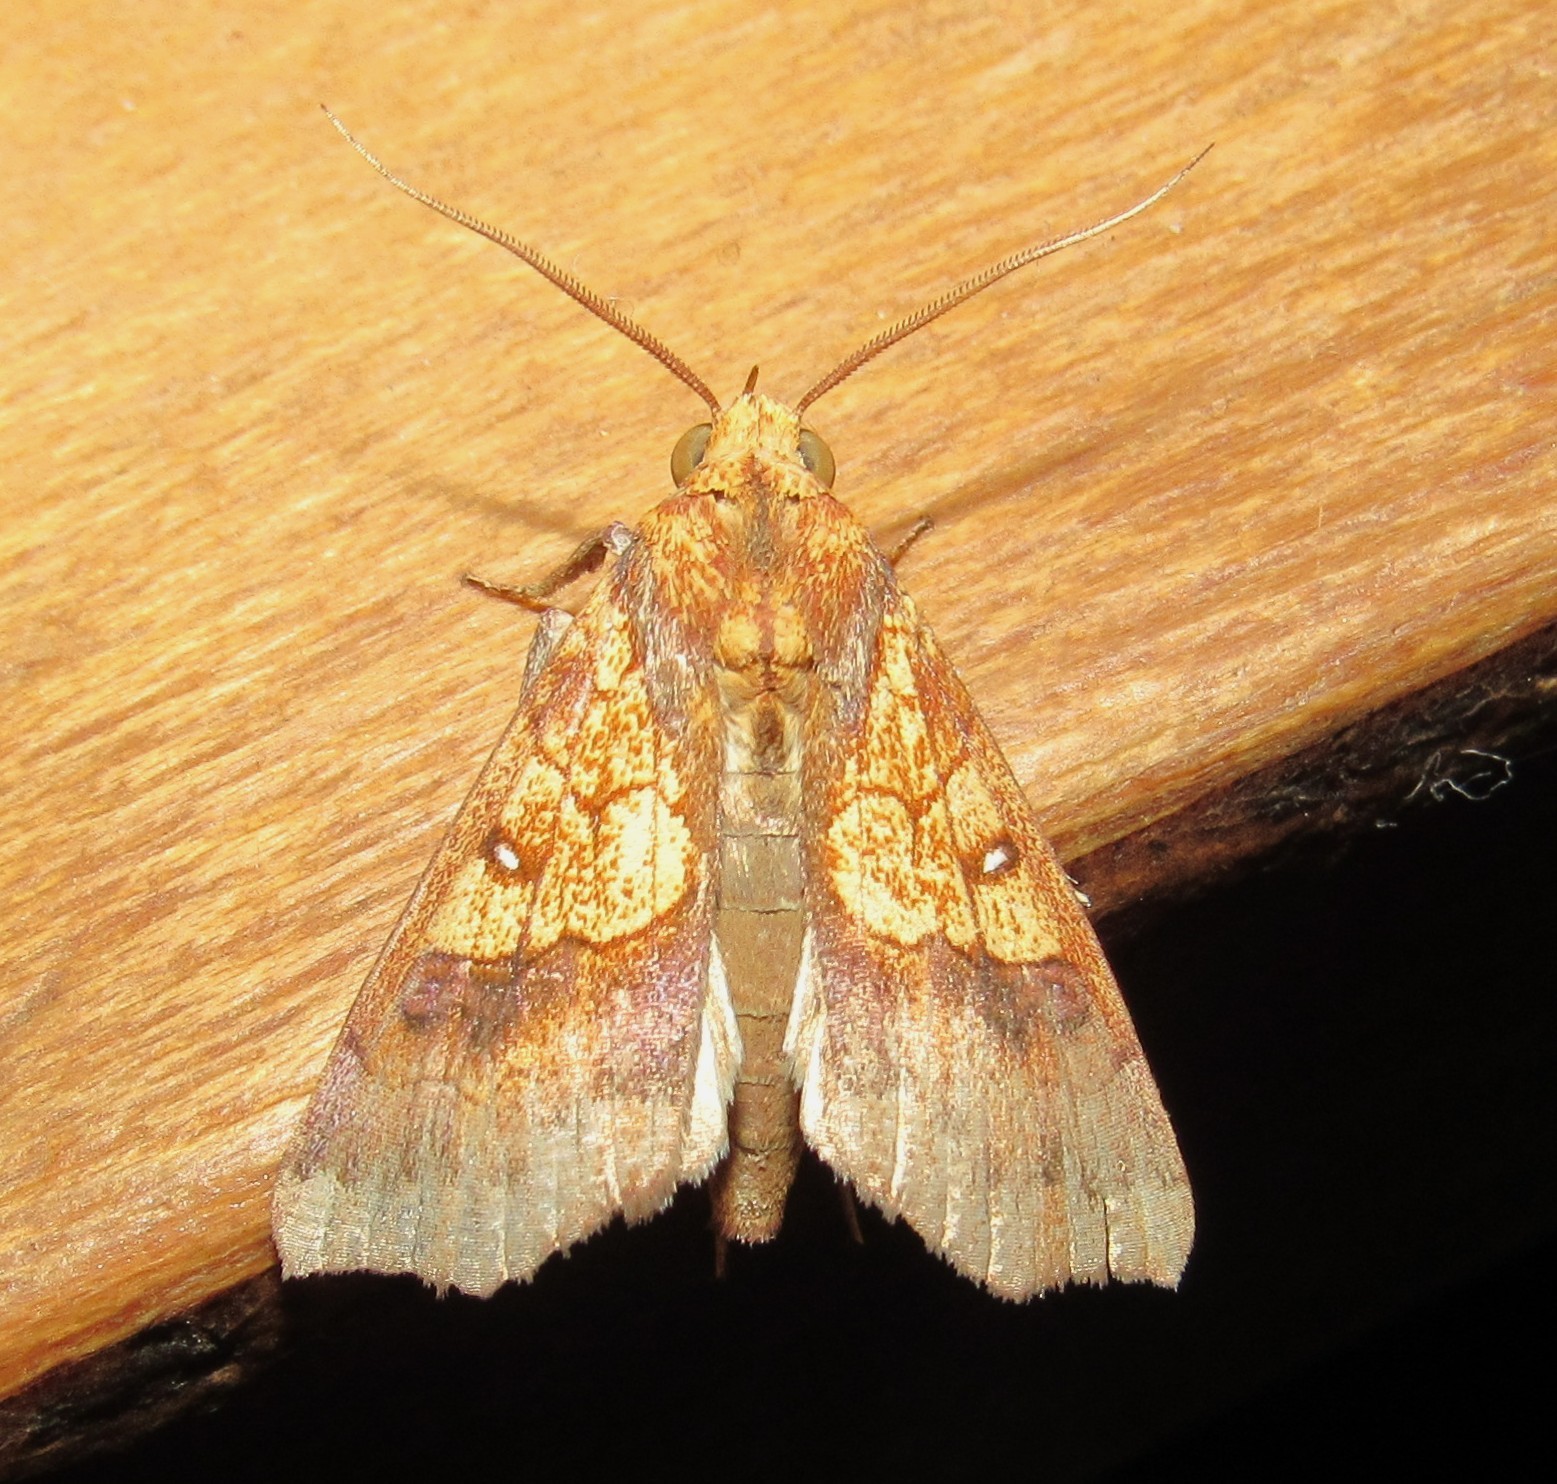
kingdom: Animalia
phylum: Arthropoda
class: Insecta
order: Lepidoptera
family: Erebidae
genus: Anomis
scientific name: Anomis flava
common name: Moth
